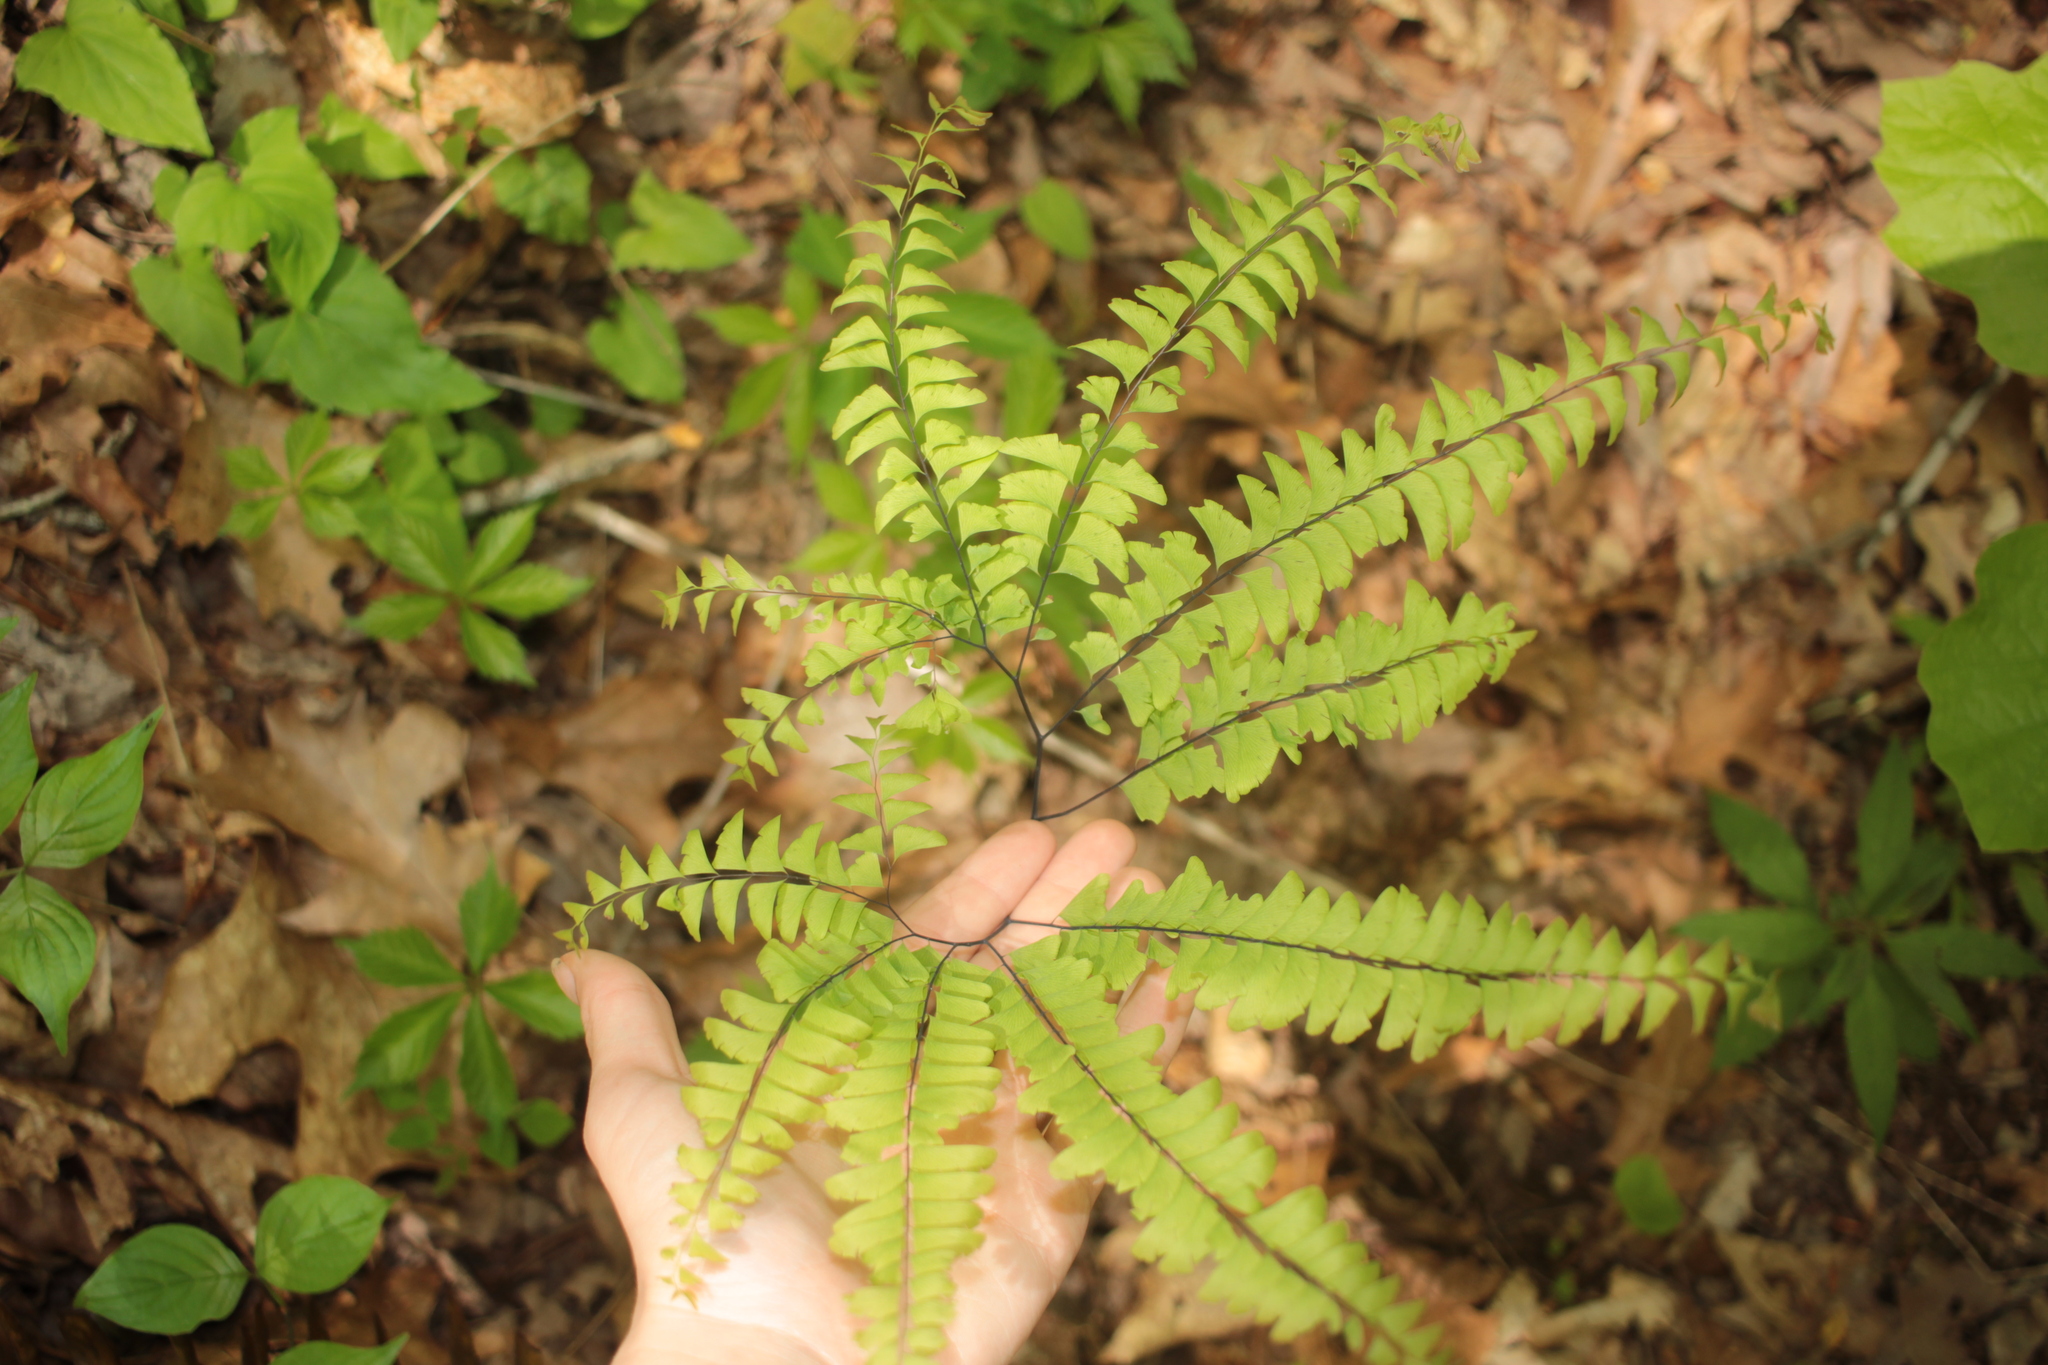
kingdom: Plantae
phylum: Tracheophyta
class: Polypodiopsida
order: Polypodiales
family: Pteridaceae
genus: Adiantum
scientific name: Adiantum pedatum
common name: Five-finger fern
